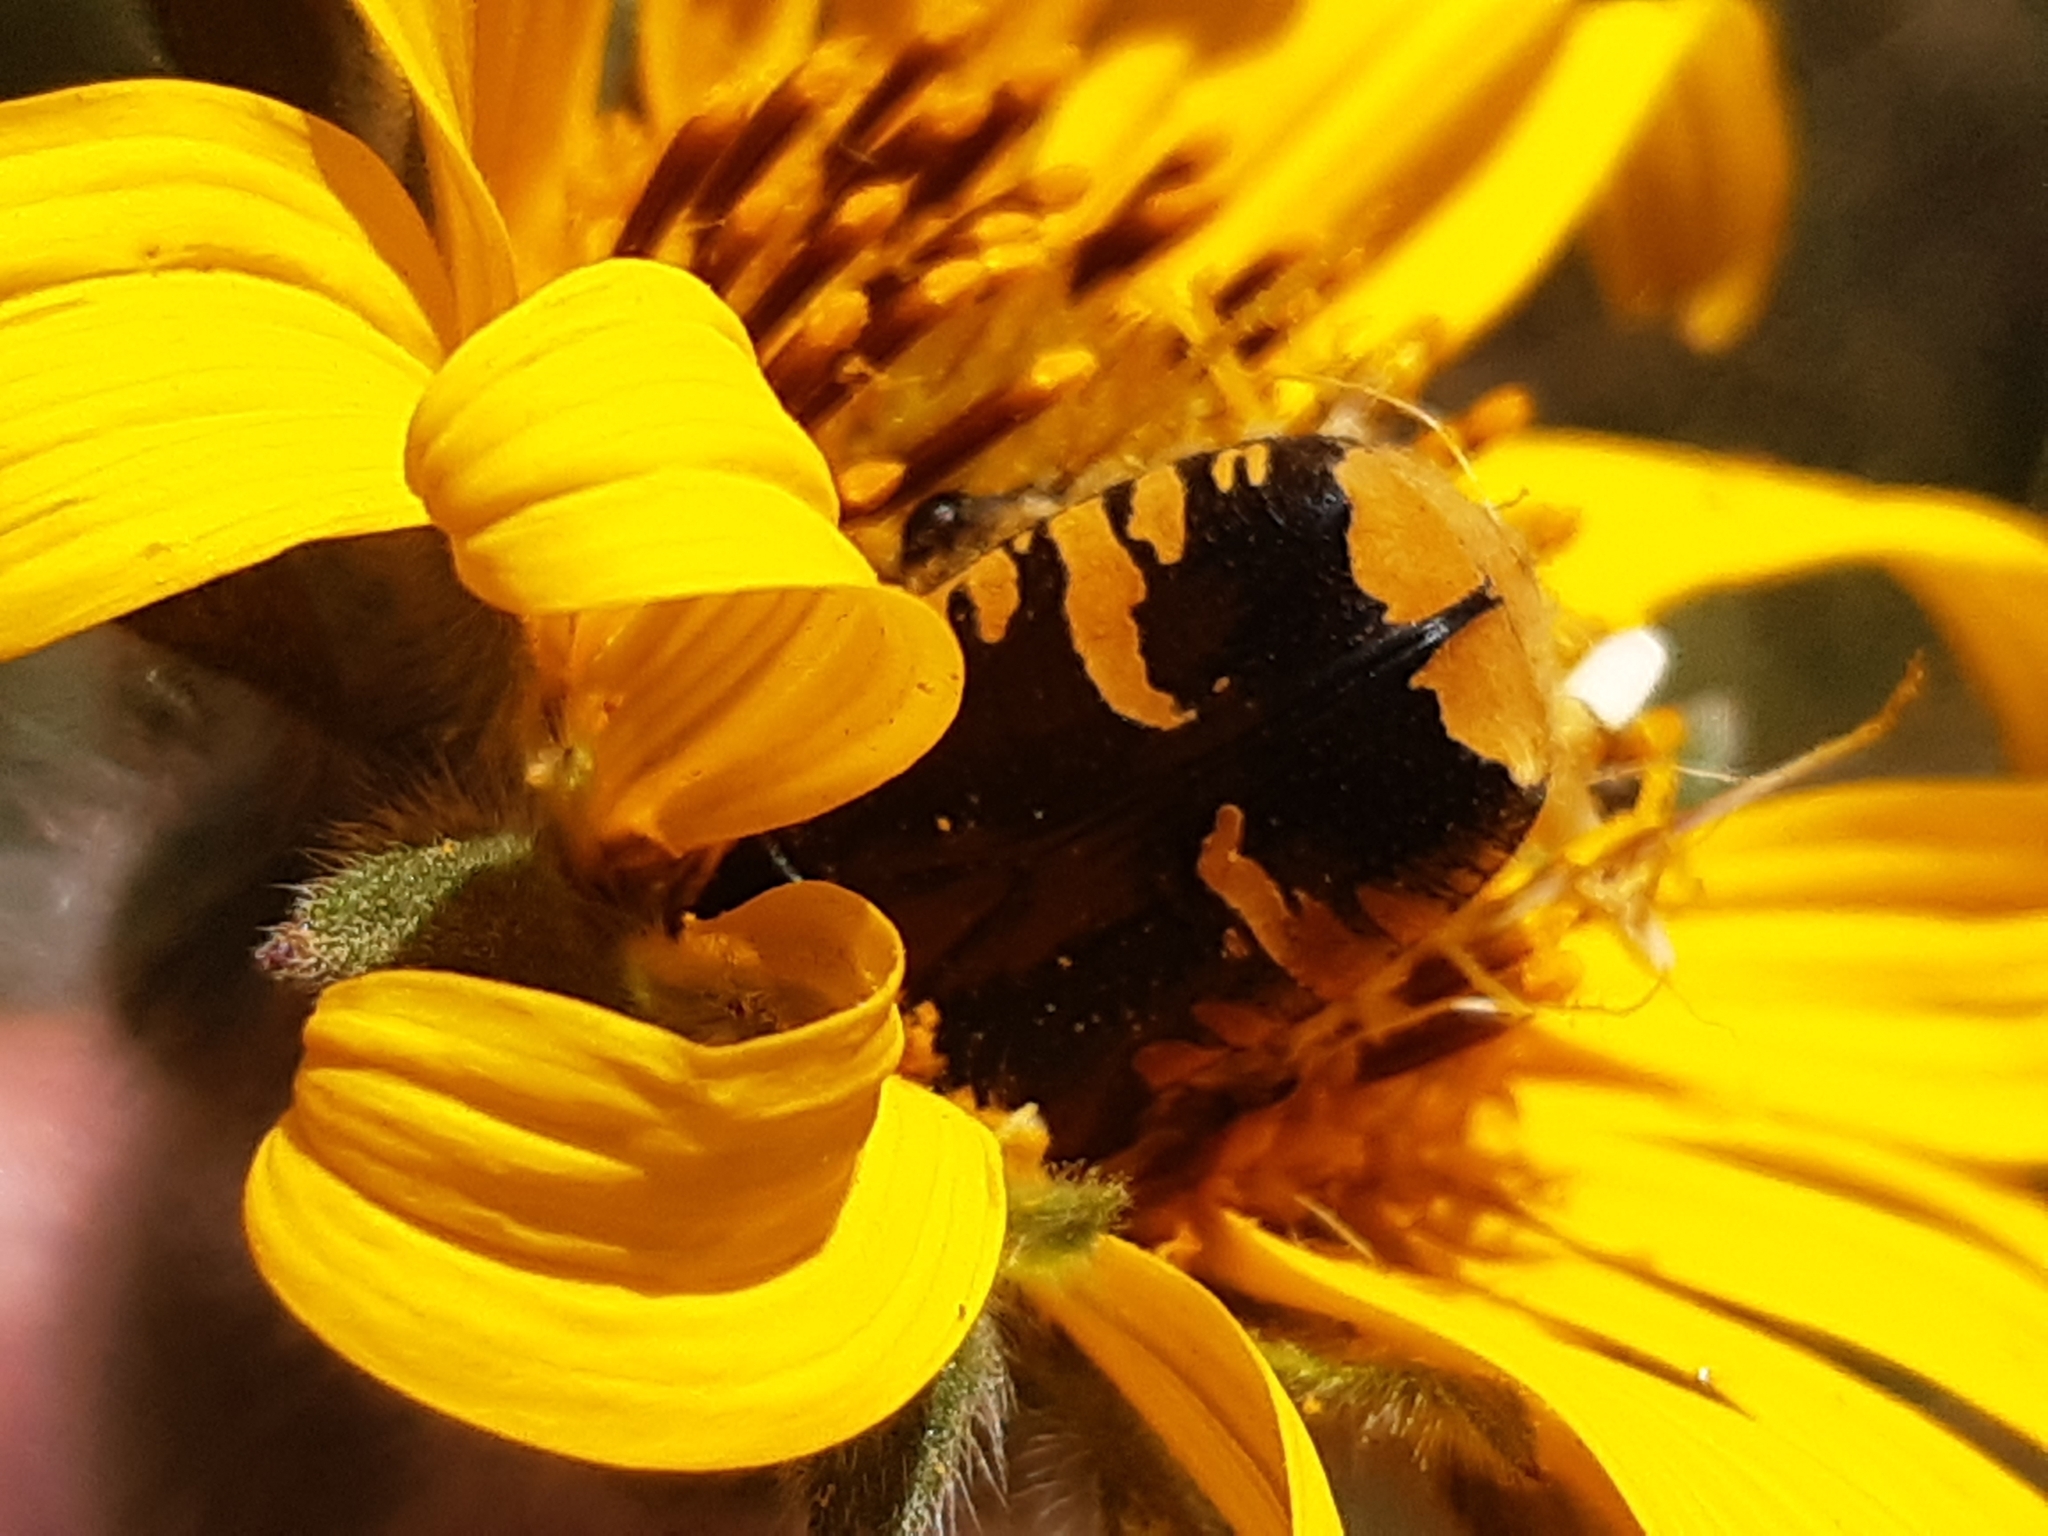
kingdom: Animalia
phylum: Arthropoda
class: Insecta
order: Coleoptera
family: Scarabaeidae
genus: Euphoria
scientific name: Euphoria biguttata
